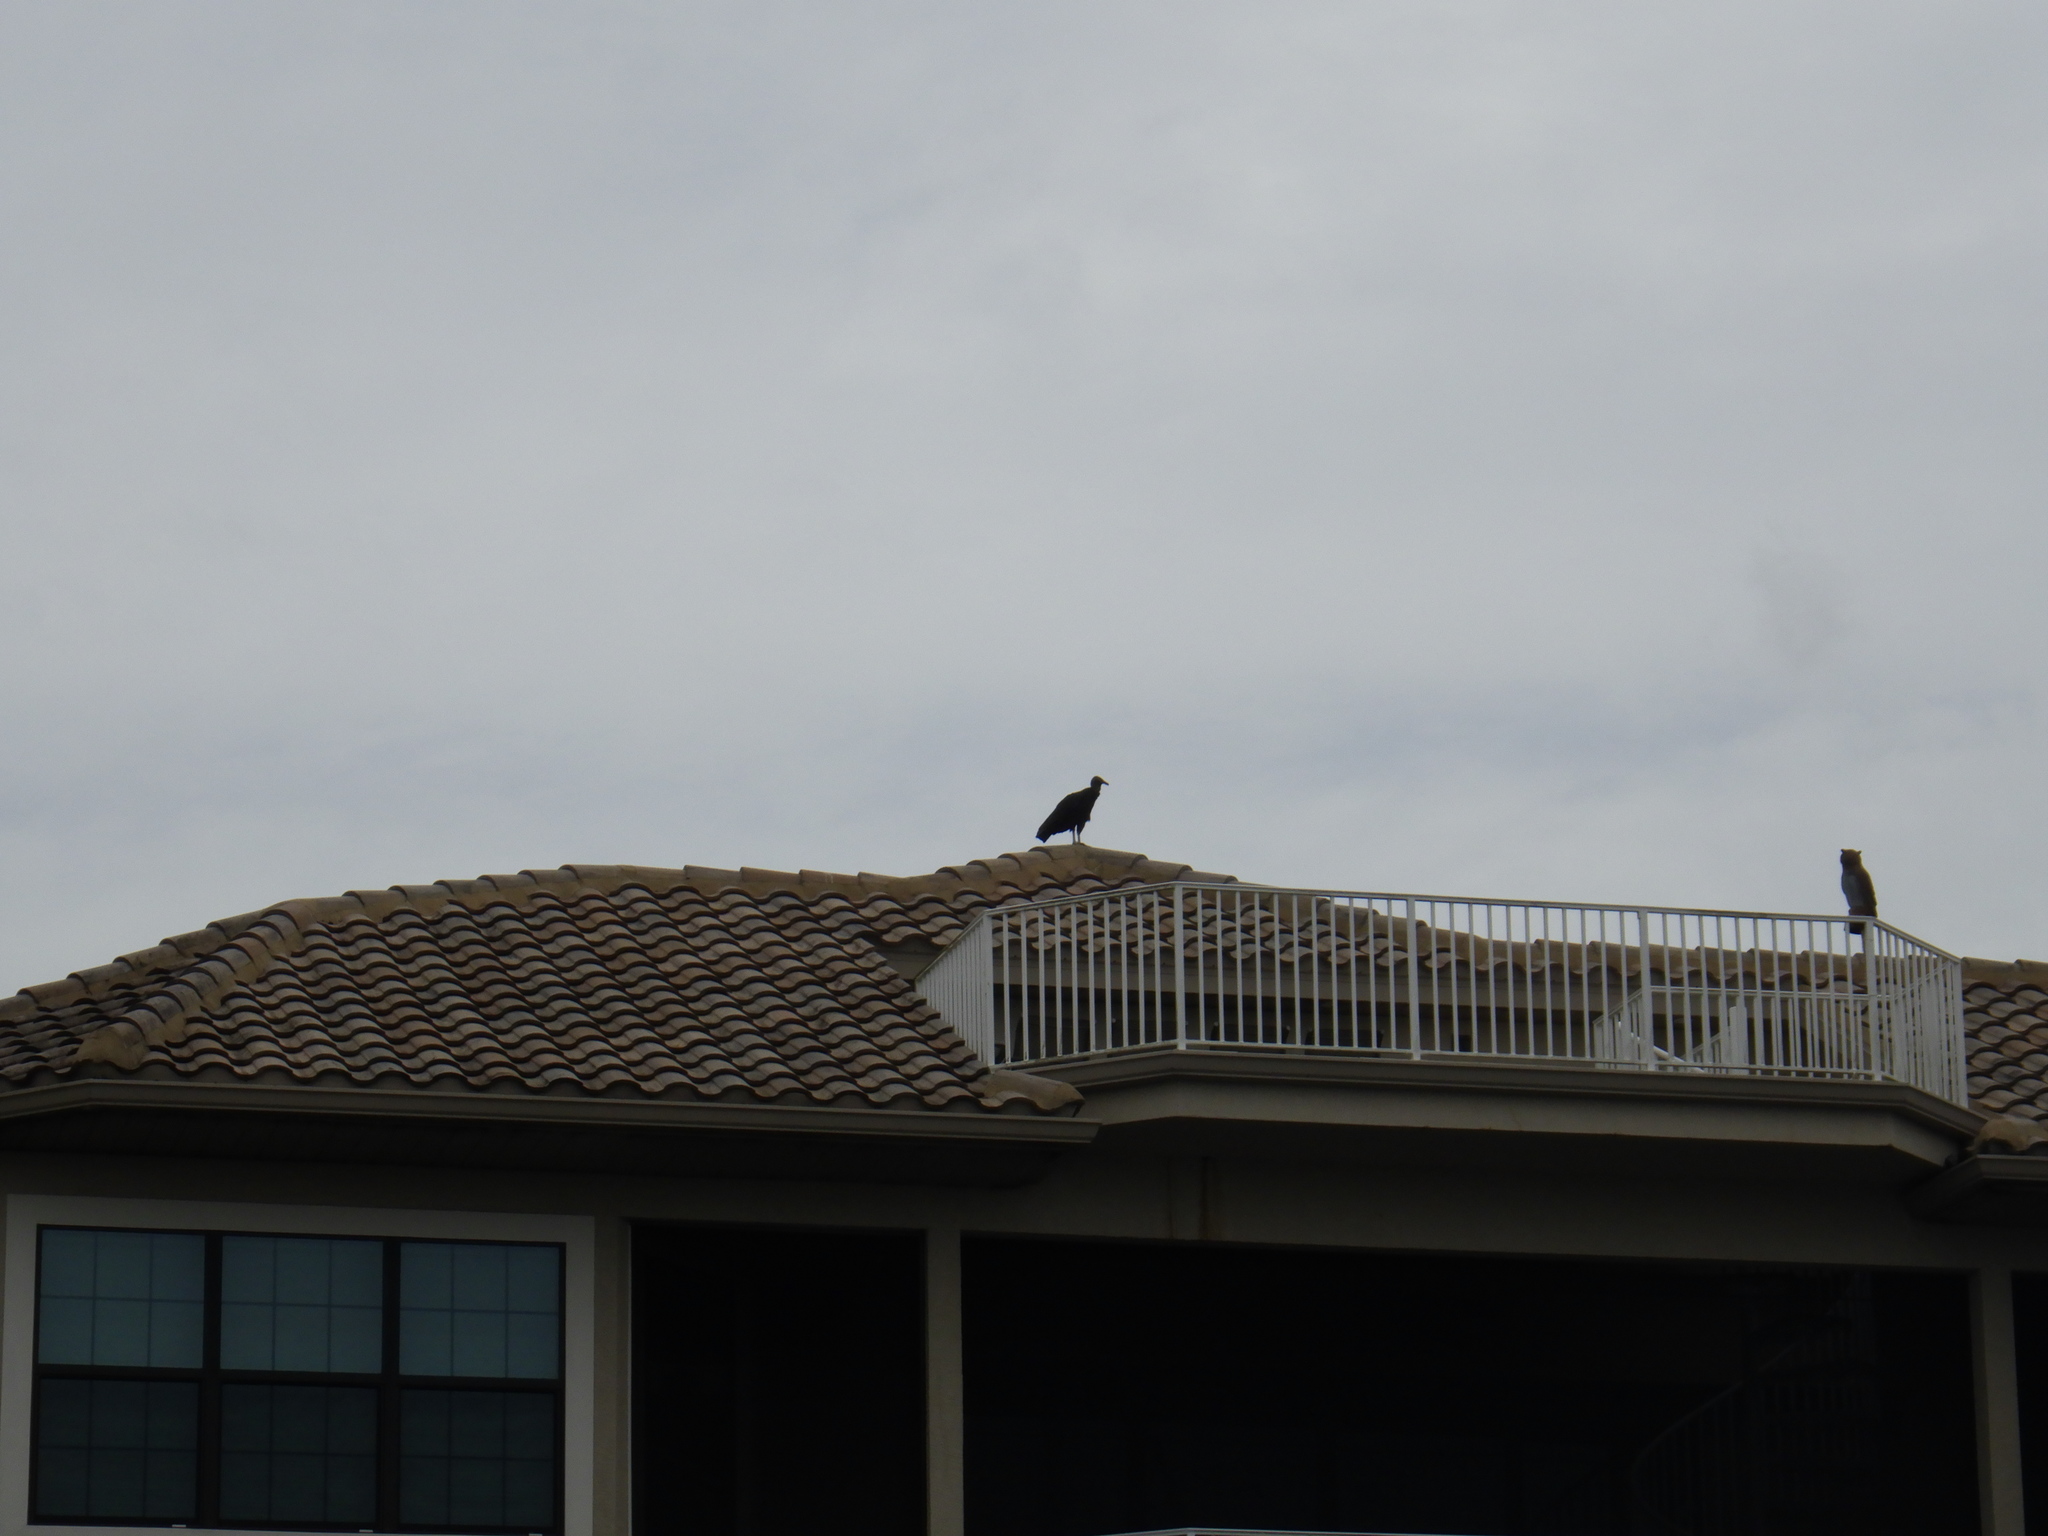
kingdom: Animalia
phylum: Chordata
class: Aves
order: Accipitriformes
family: Cathartidae
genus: Coragyps
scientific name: Coragyps atratus
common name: Black vulture
